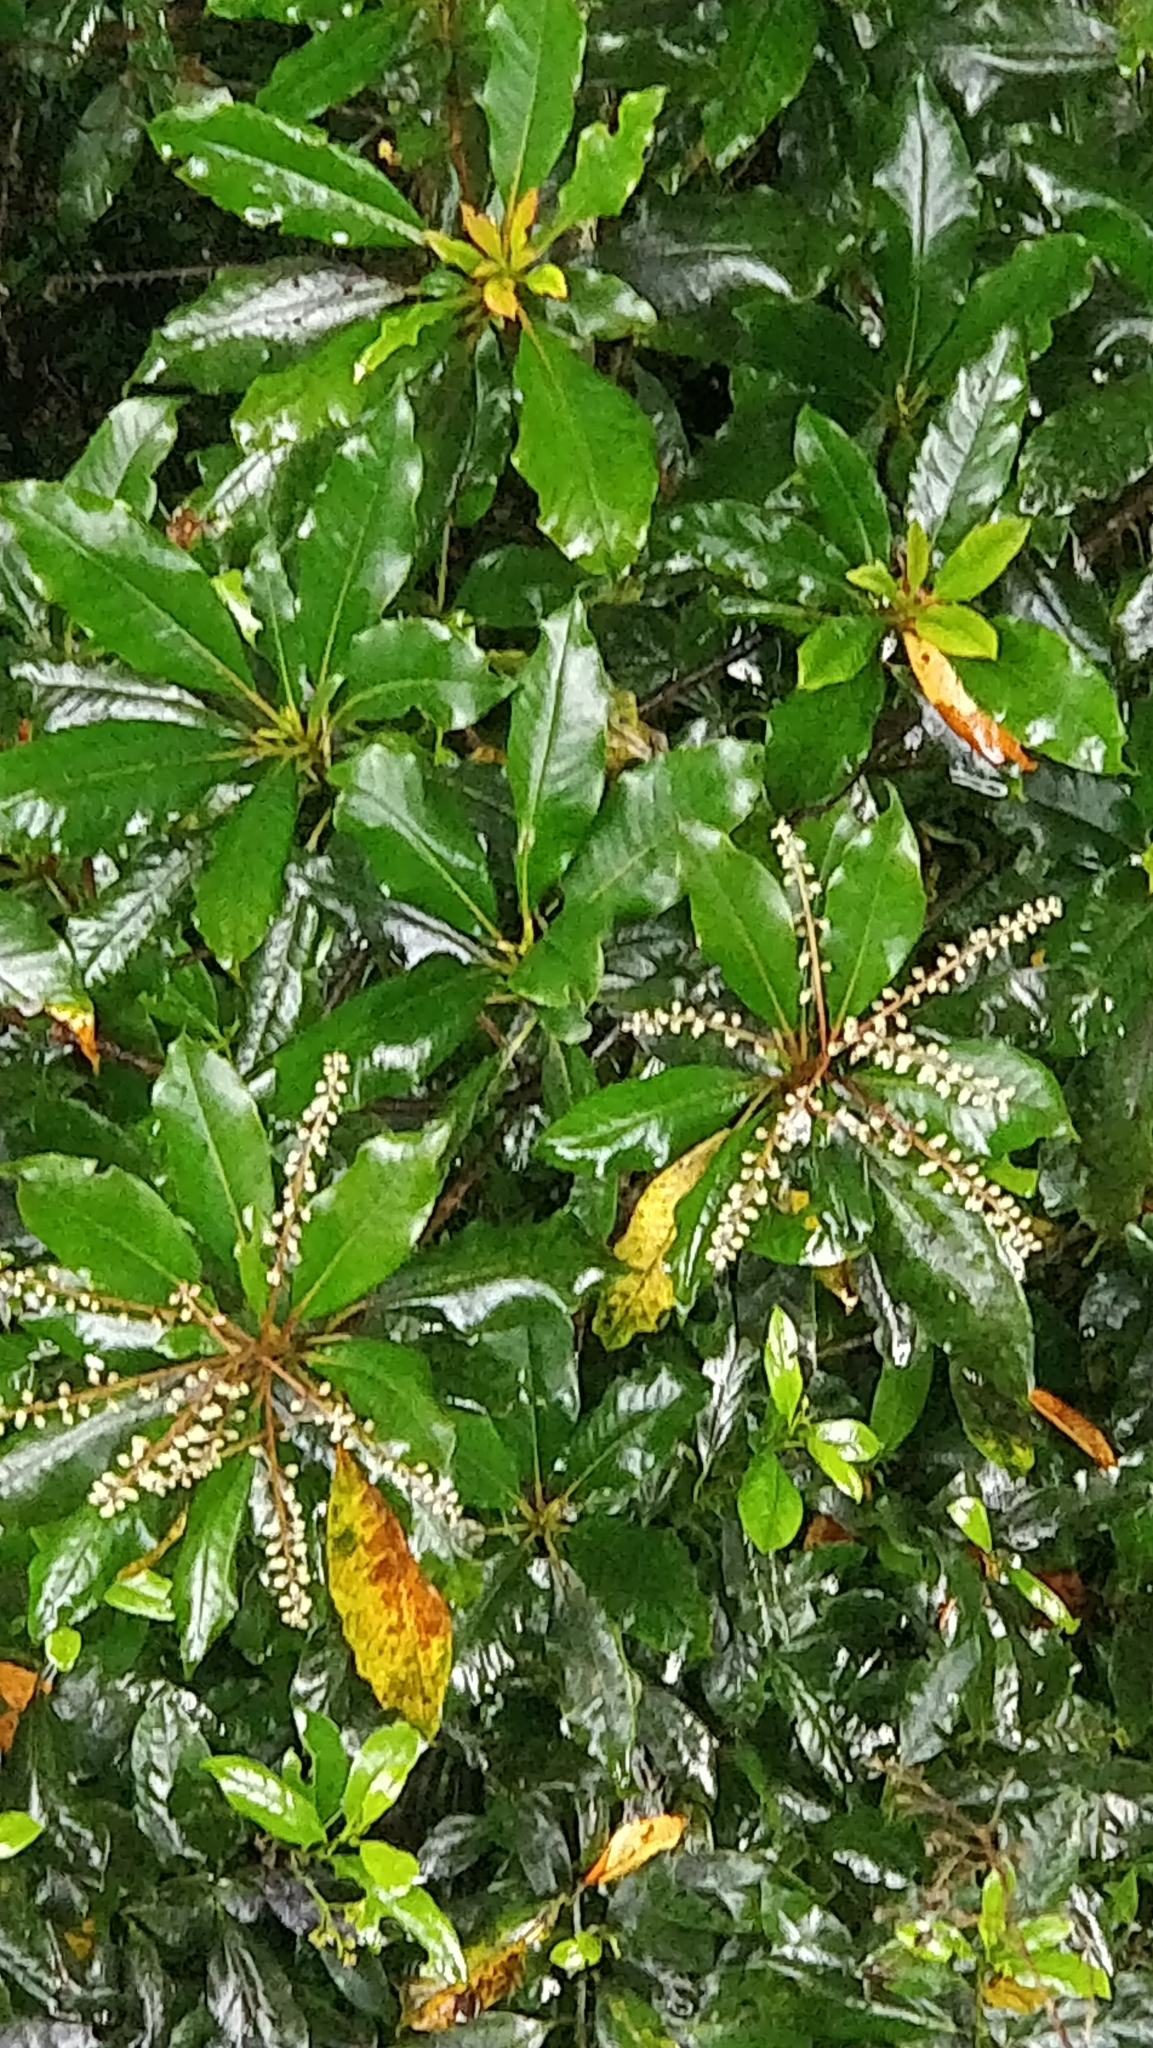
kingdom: Plantae
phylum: Tracheophyta
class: Magnoliopsida
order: Ericales
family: Clethraceae
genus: Clethra
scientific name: Clethra arborea
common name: Lily-of-the-valley-tree
